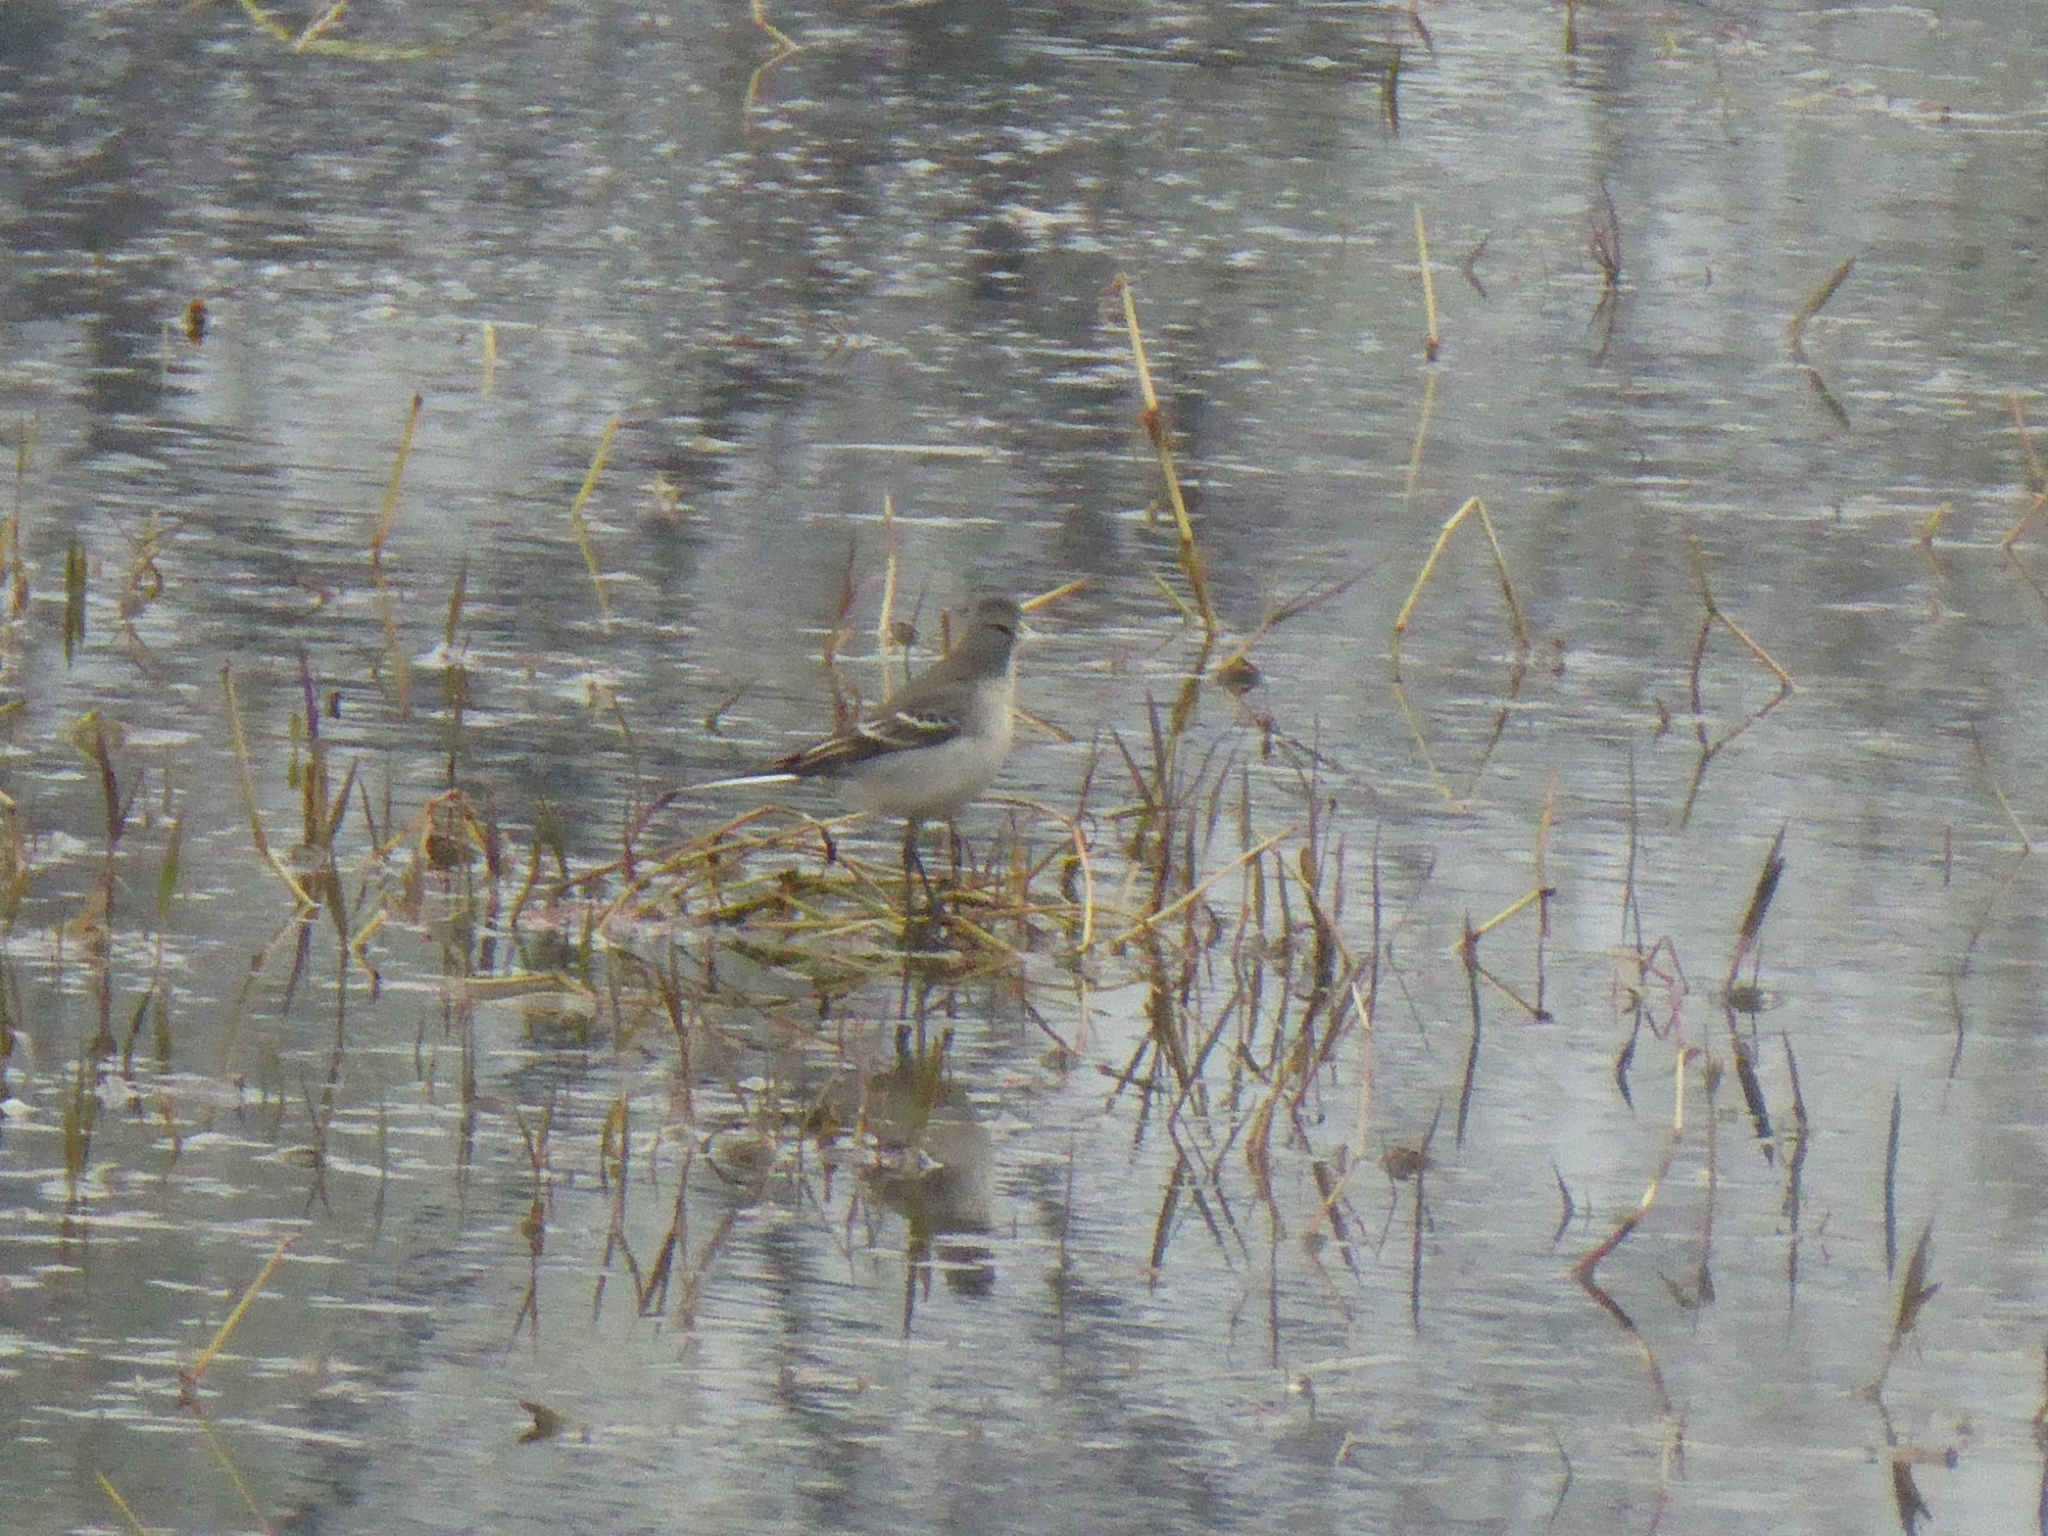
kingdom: Animalia
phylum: Chordata
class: Aves
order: Passeriformes
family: Motacillidae
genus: Motacilla
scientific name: Motacilla citreola
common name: Citrine wagtail
